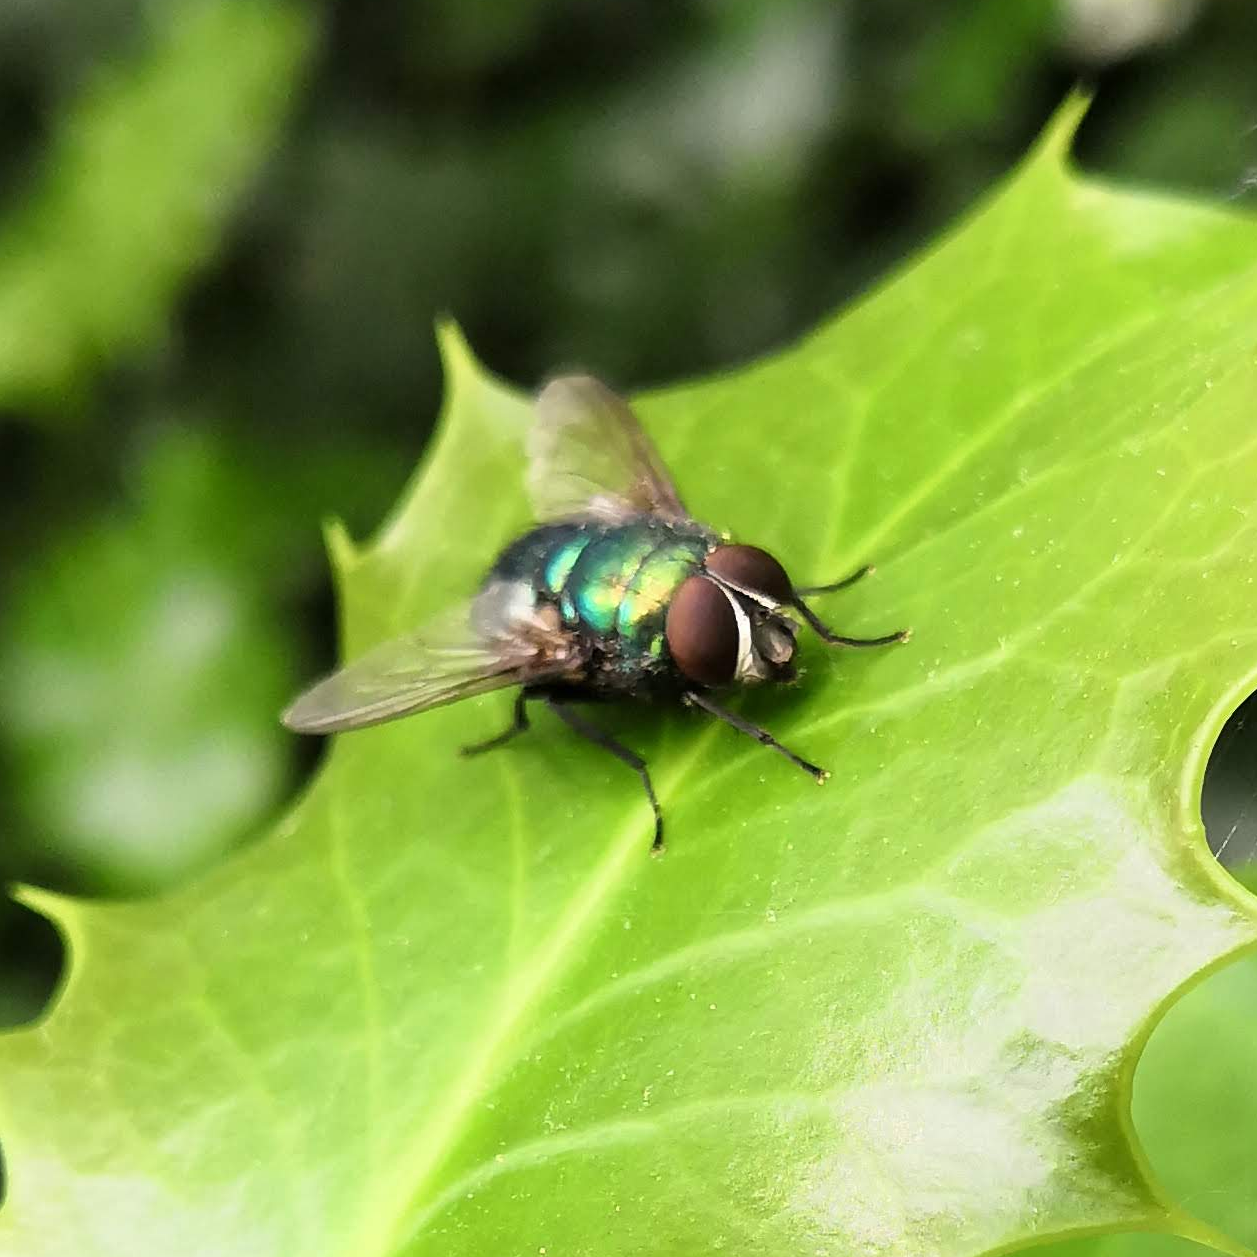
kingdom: Animalia
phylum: Arthropoda
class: Insecta
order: Diptera
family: Calliphoridae
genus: Lucilia
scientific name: Lucilia
